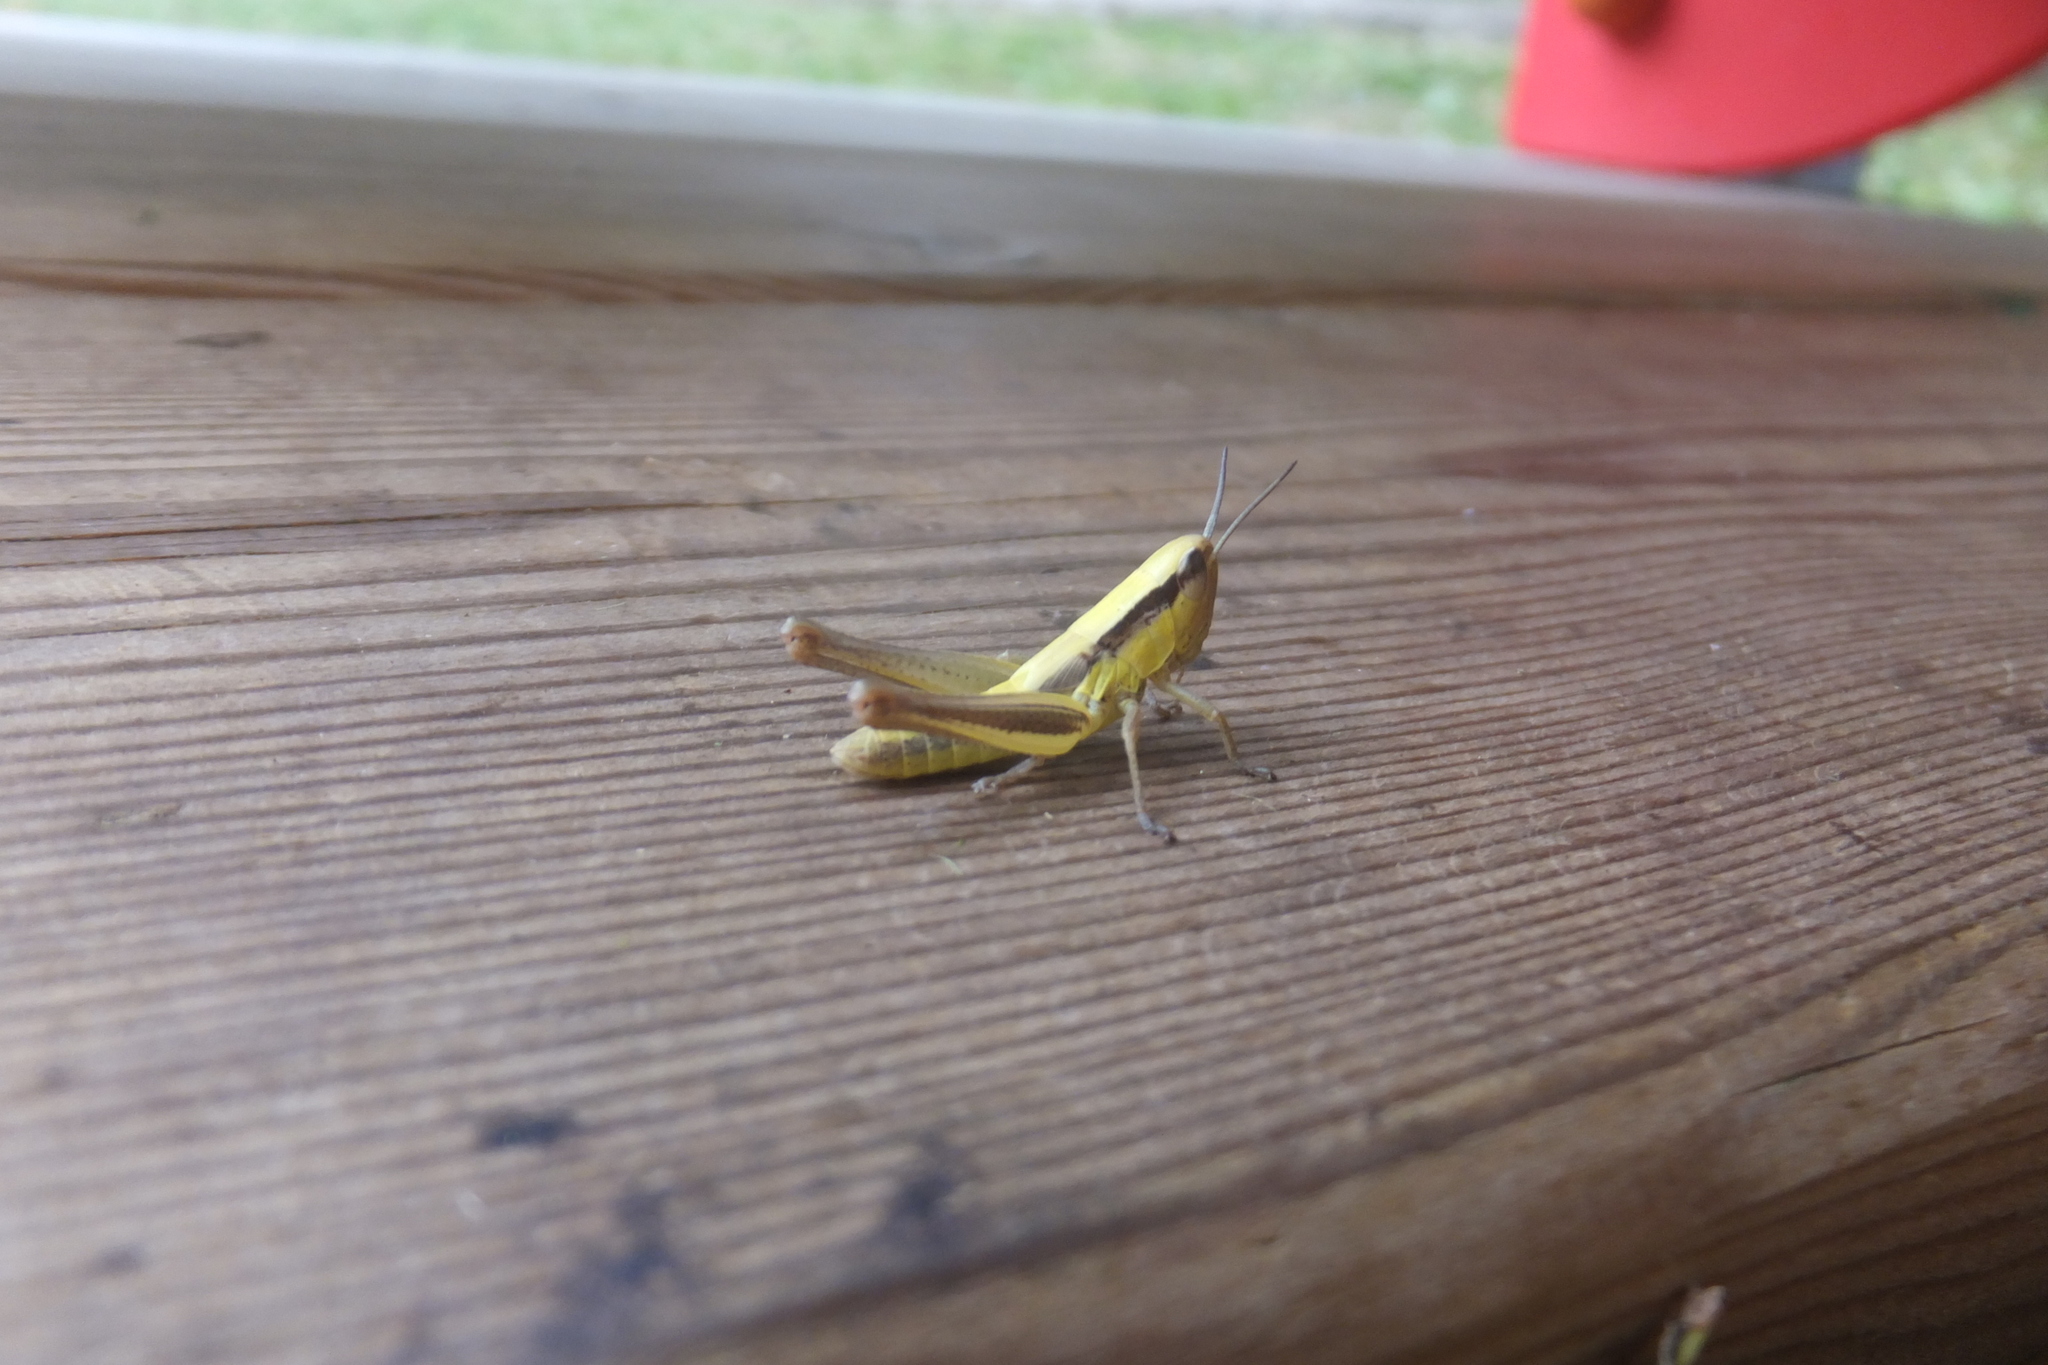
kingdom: Animalia
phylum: Arthropoda
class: Insecta
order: Orthoptera
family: Acrididae
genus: Euchorthippus
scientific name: Euchorthippus declivus
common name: Common straw grasshopper
